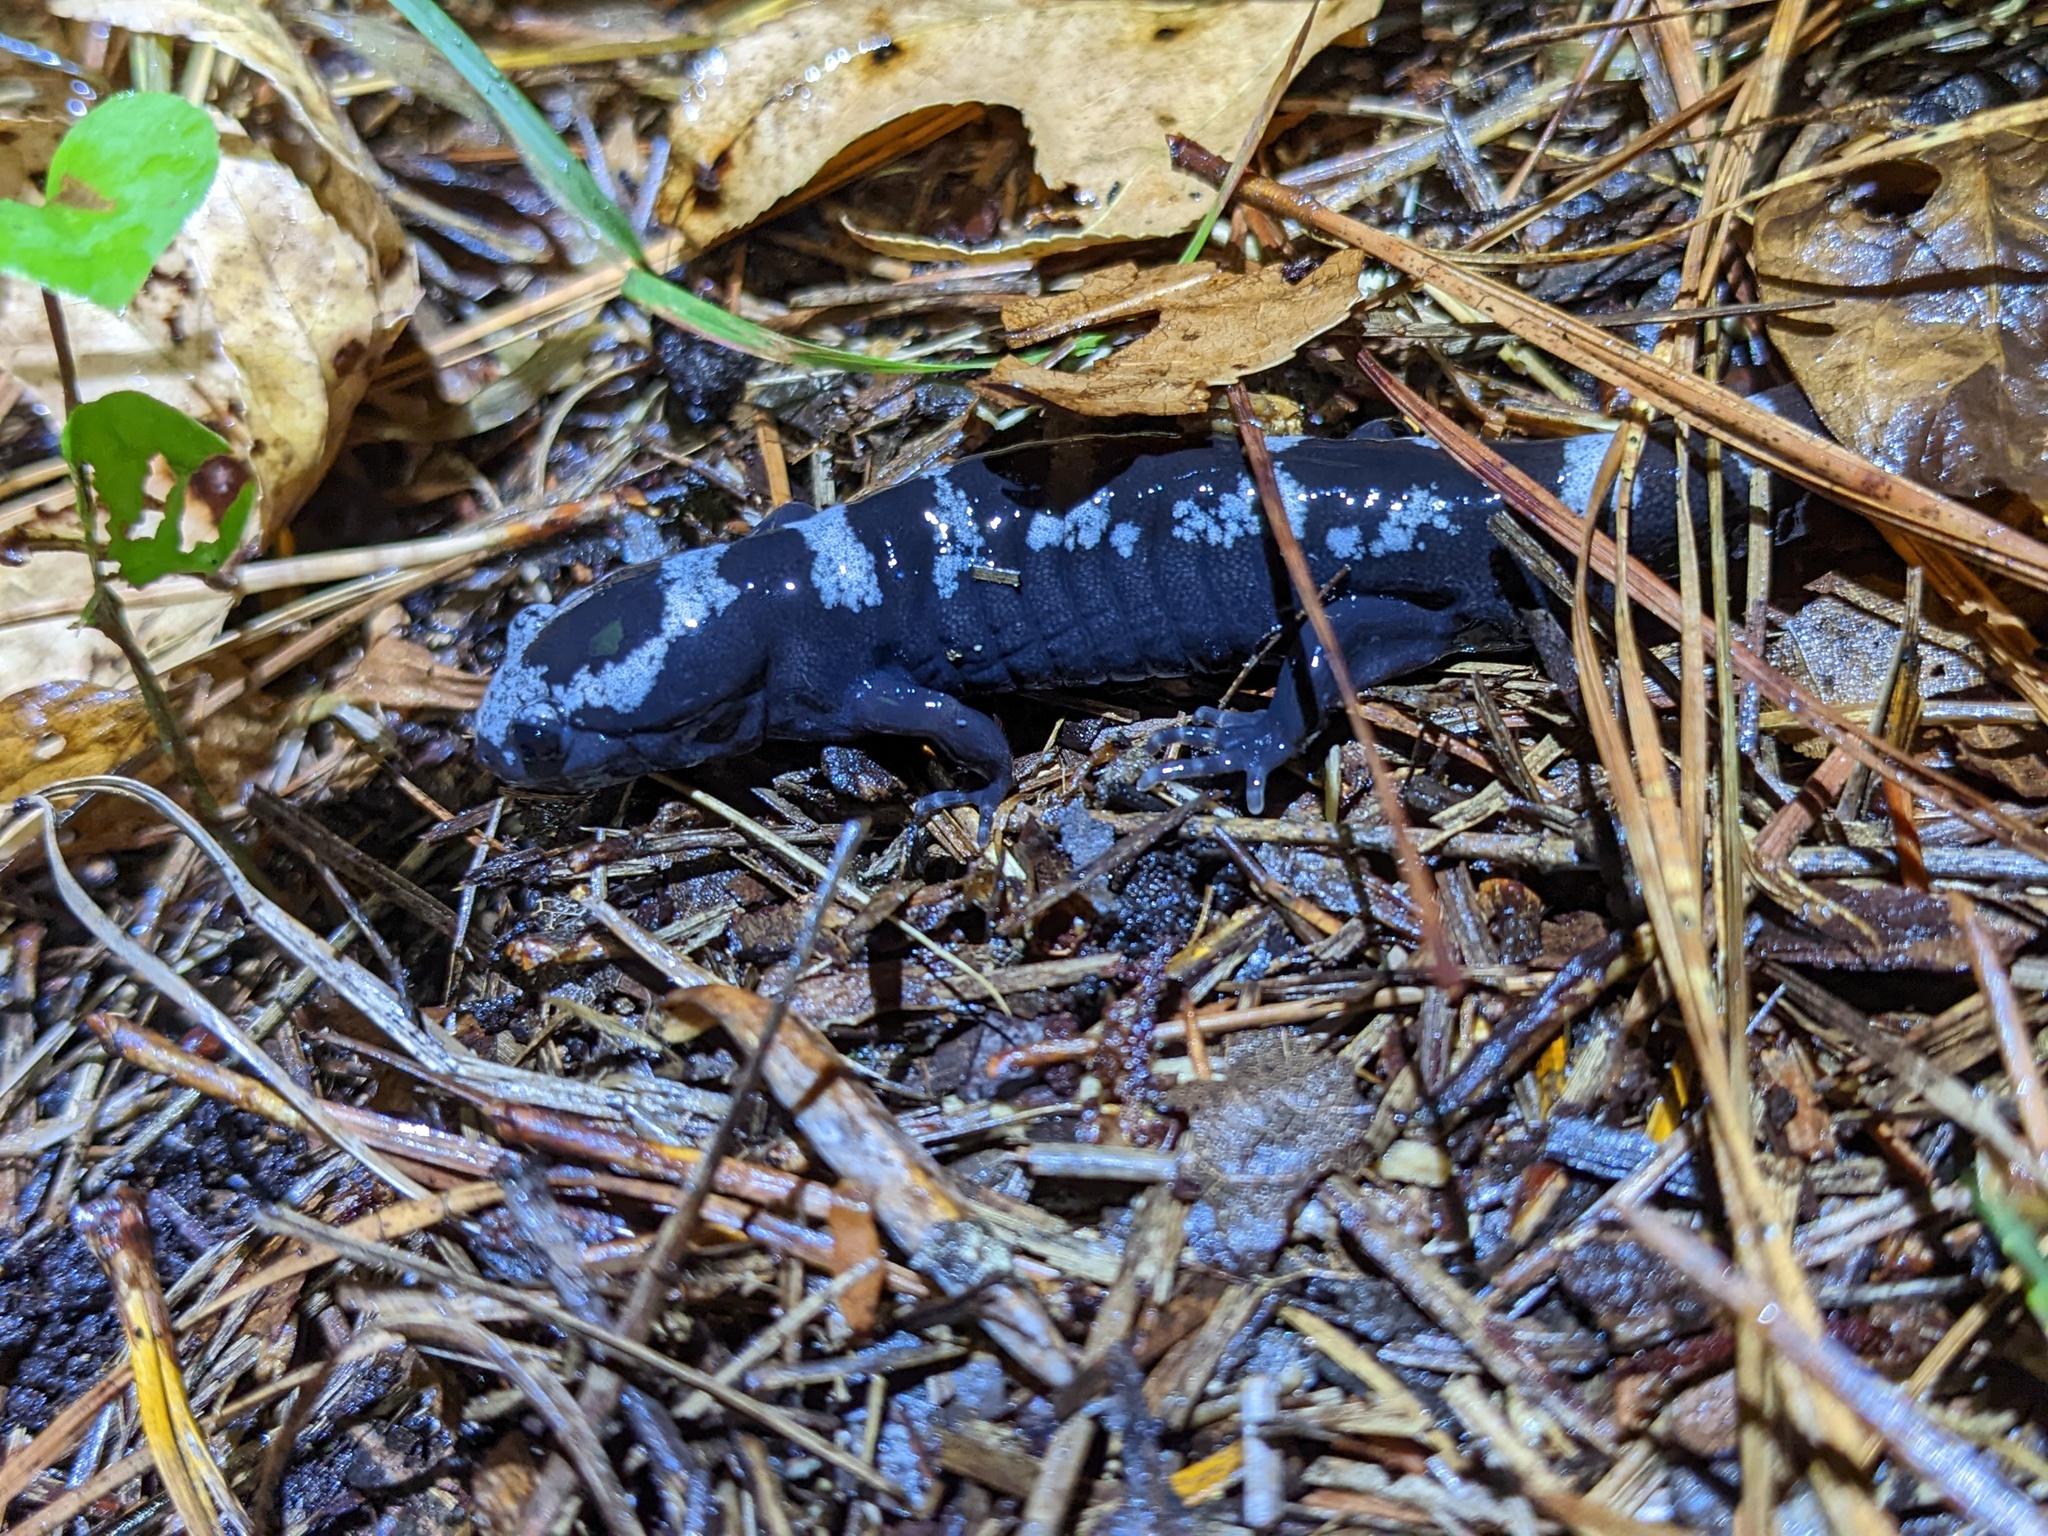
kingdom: Animalia
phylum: Chordata
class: Amphibia
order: Caudata
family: Ambystomatidae
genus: Ambystoma
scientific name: Ambystoma opacum
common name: Marbled salamander
